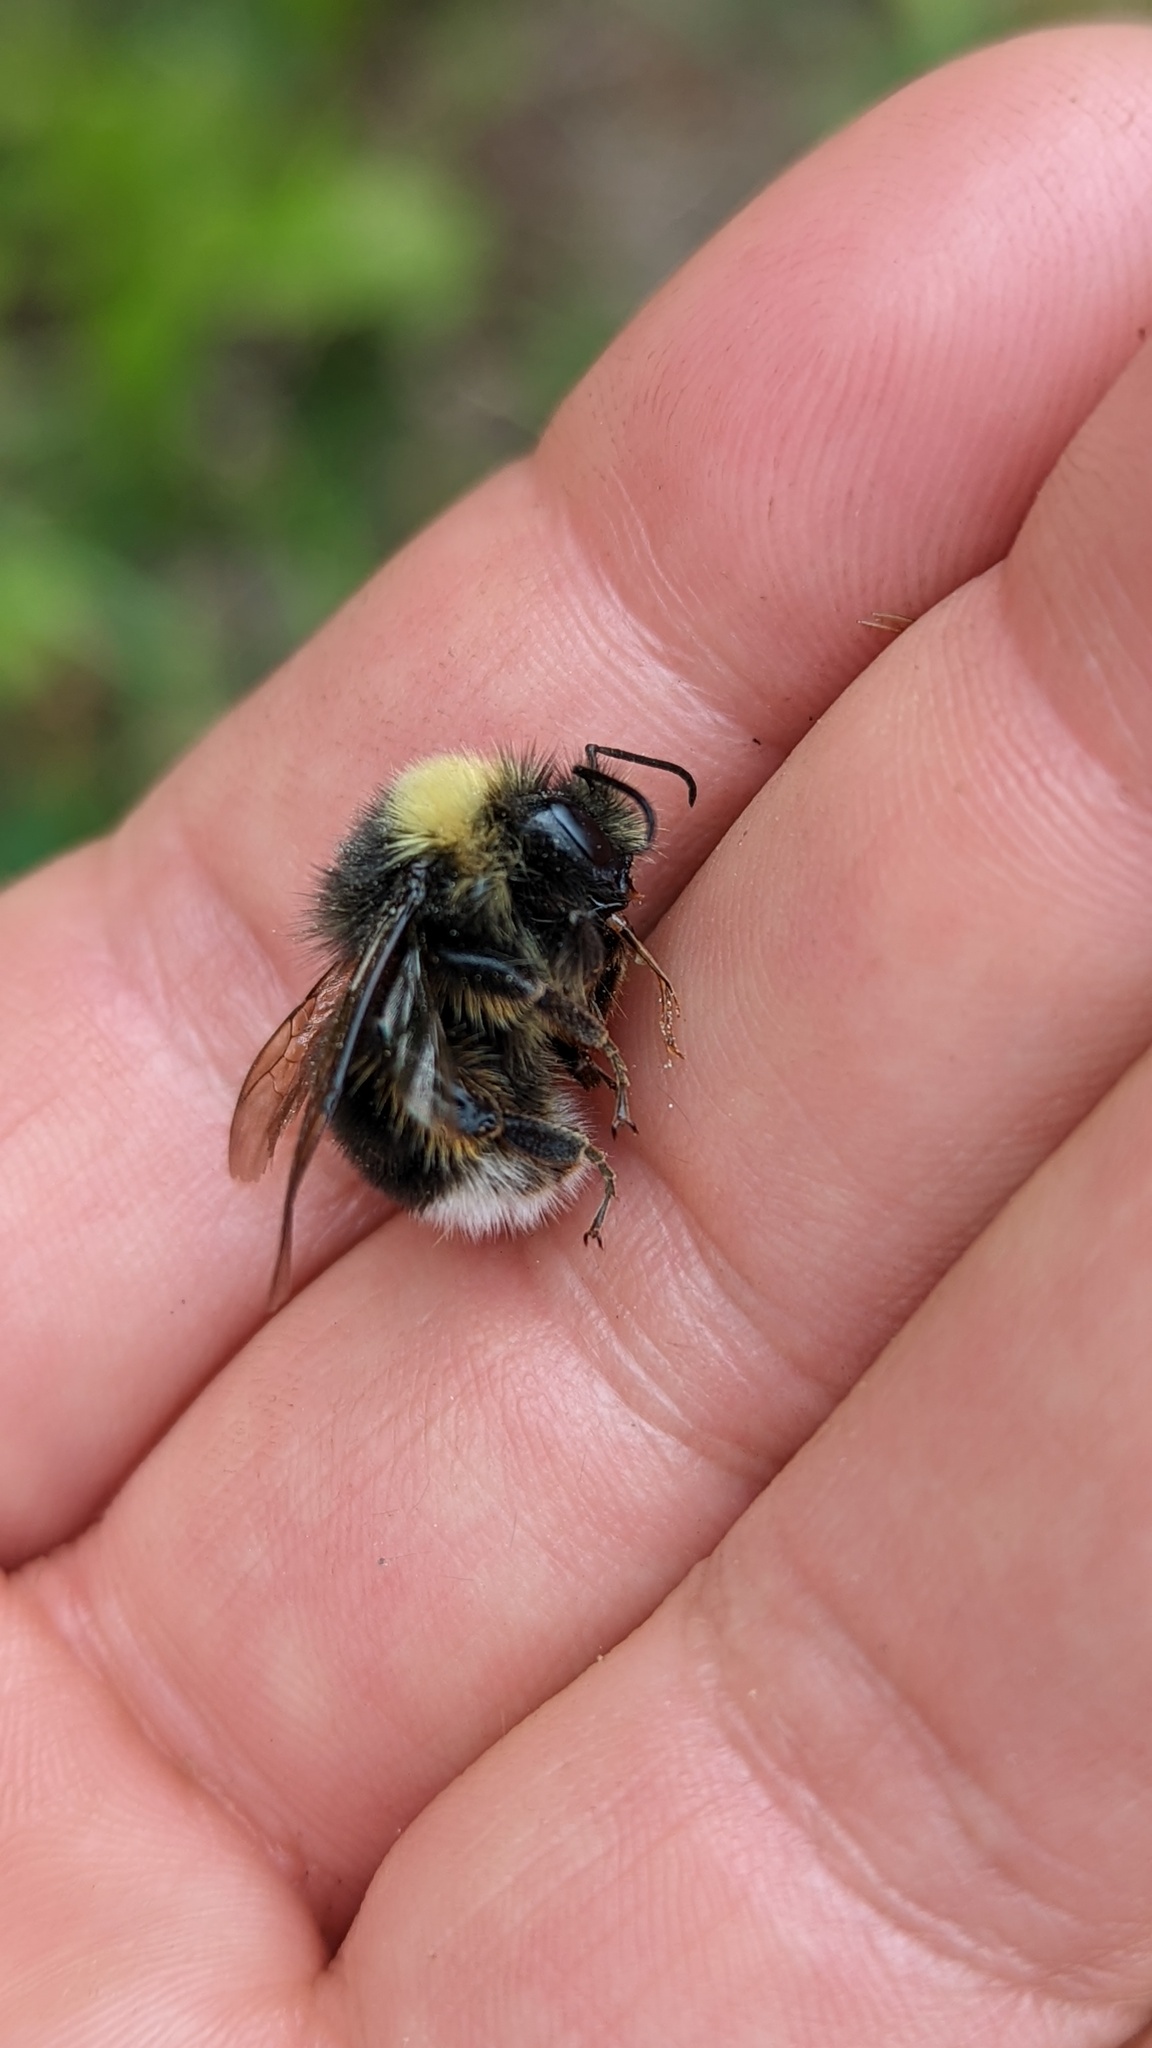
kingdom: Animalia
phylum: Arthropoda
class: Insecta
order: Hymenoptera
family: Apidae
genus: Bombus
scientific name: Bombus occidentalis
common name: Western bumble bee
